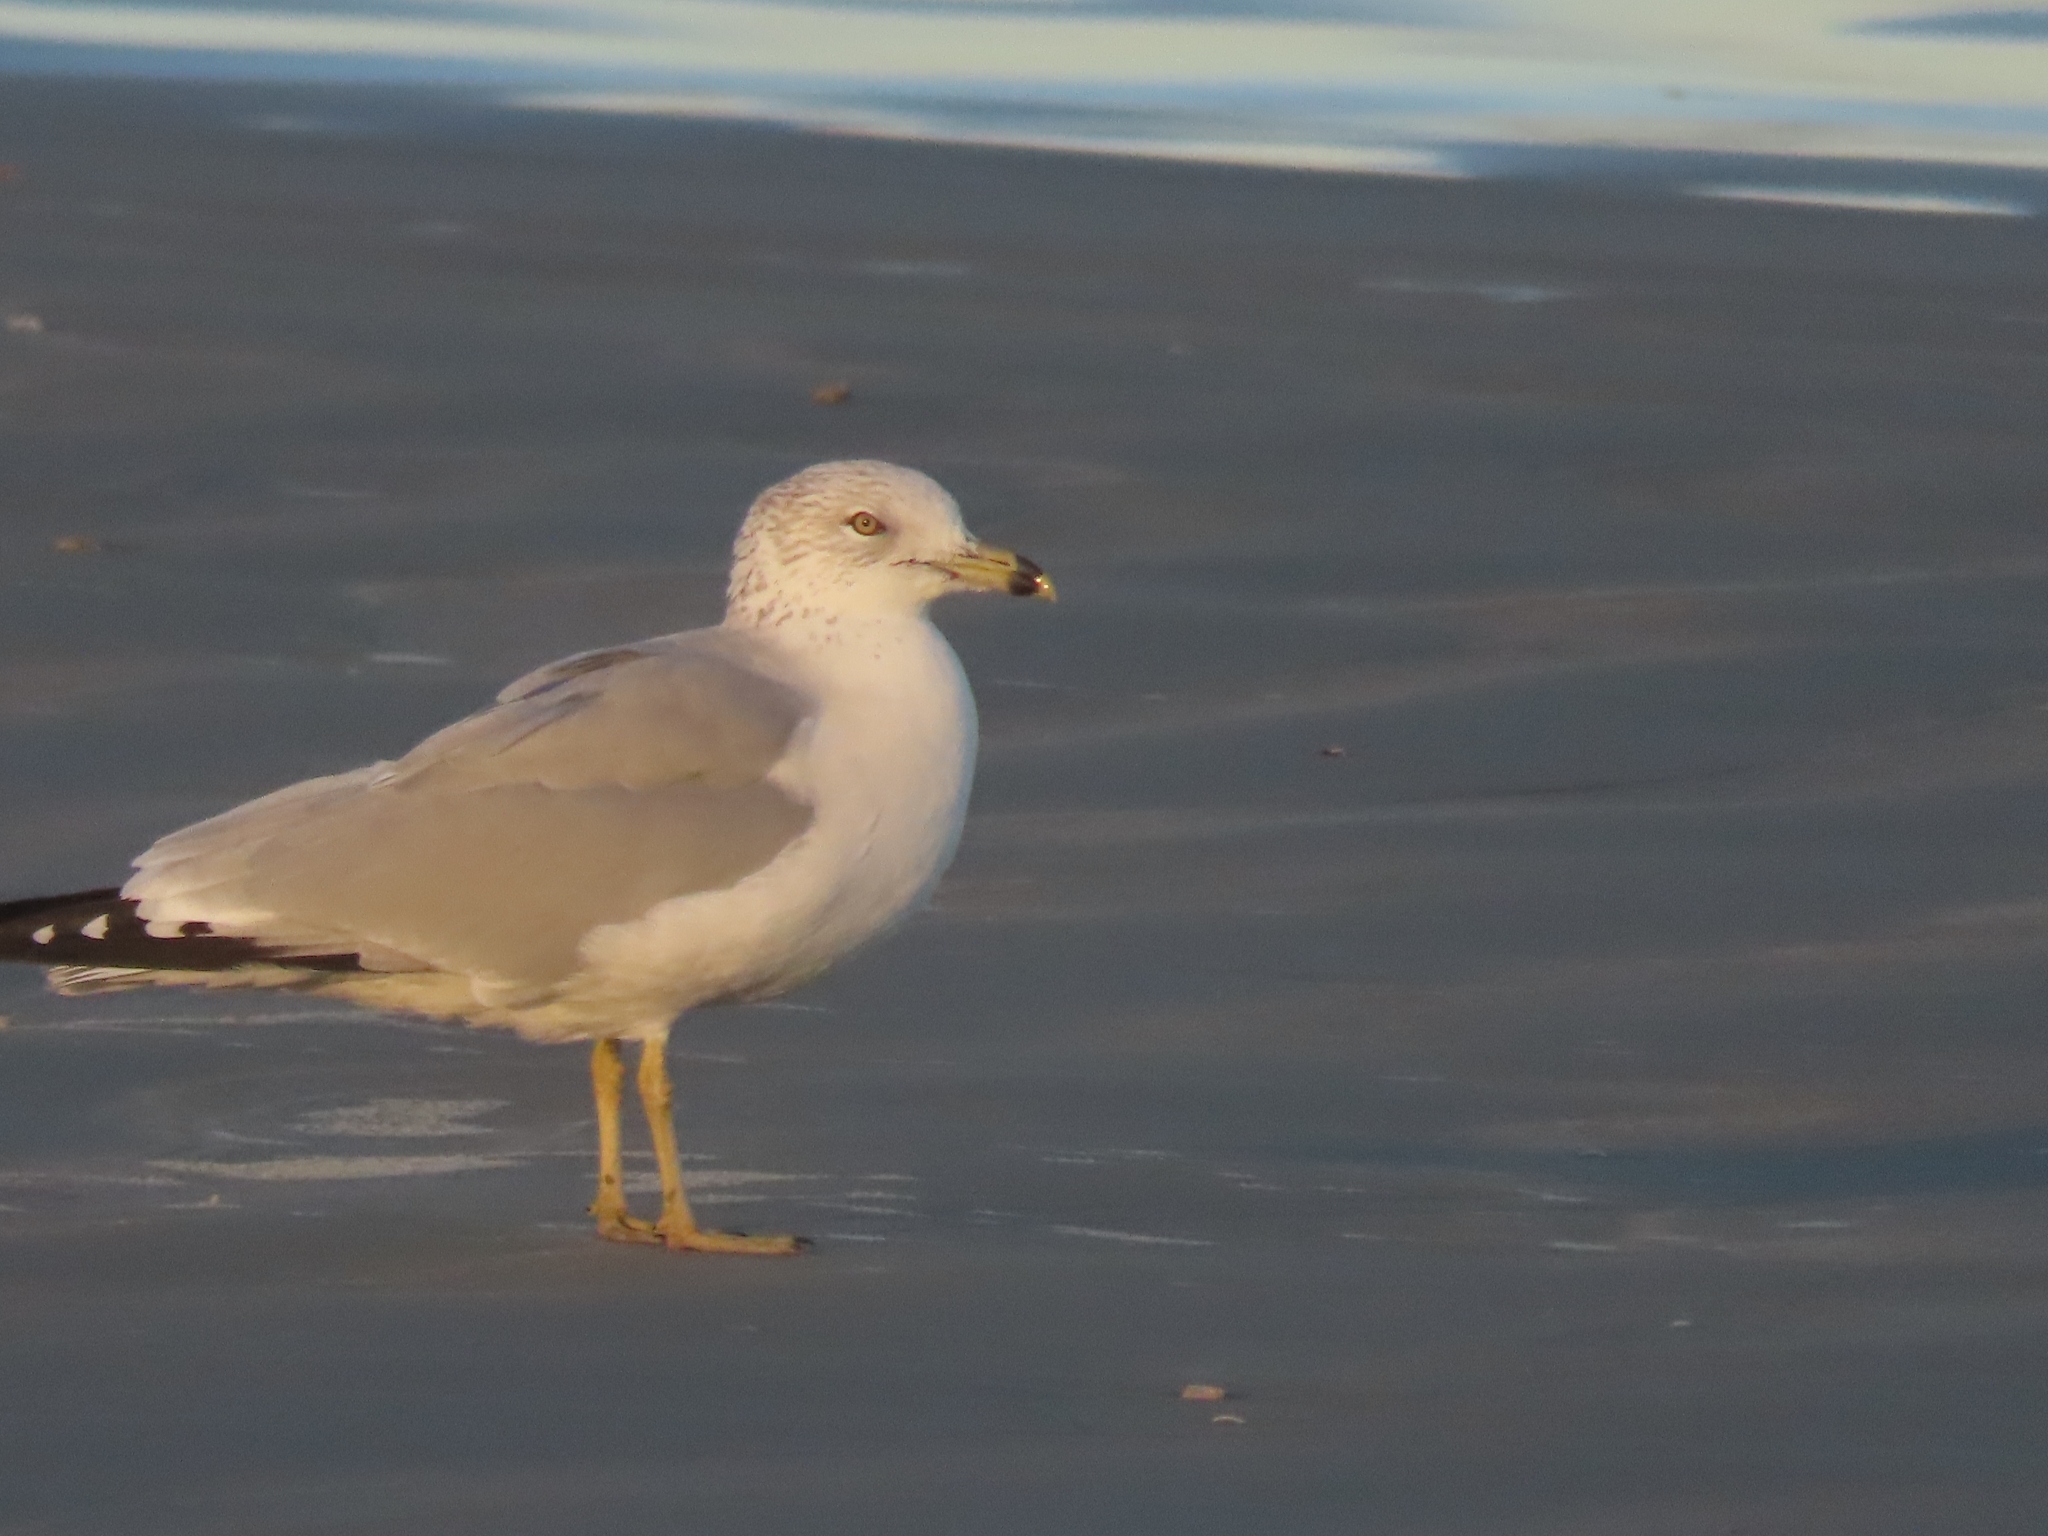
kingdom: Animalia
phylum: Chordata
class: Aves
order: Charadriiformes
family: Laridae
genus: Larus
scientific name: Larus delawarensis
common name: Ring-billed gull
